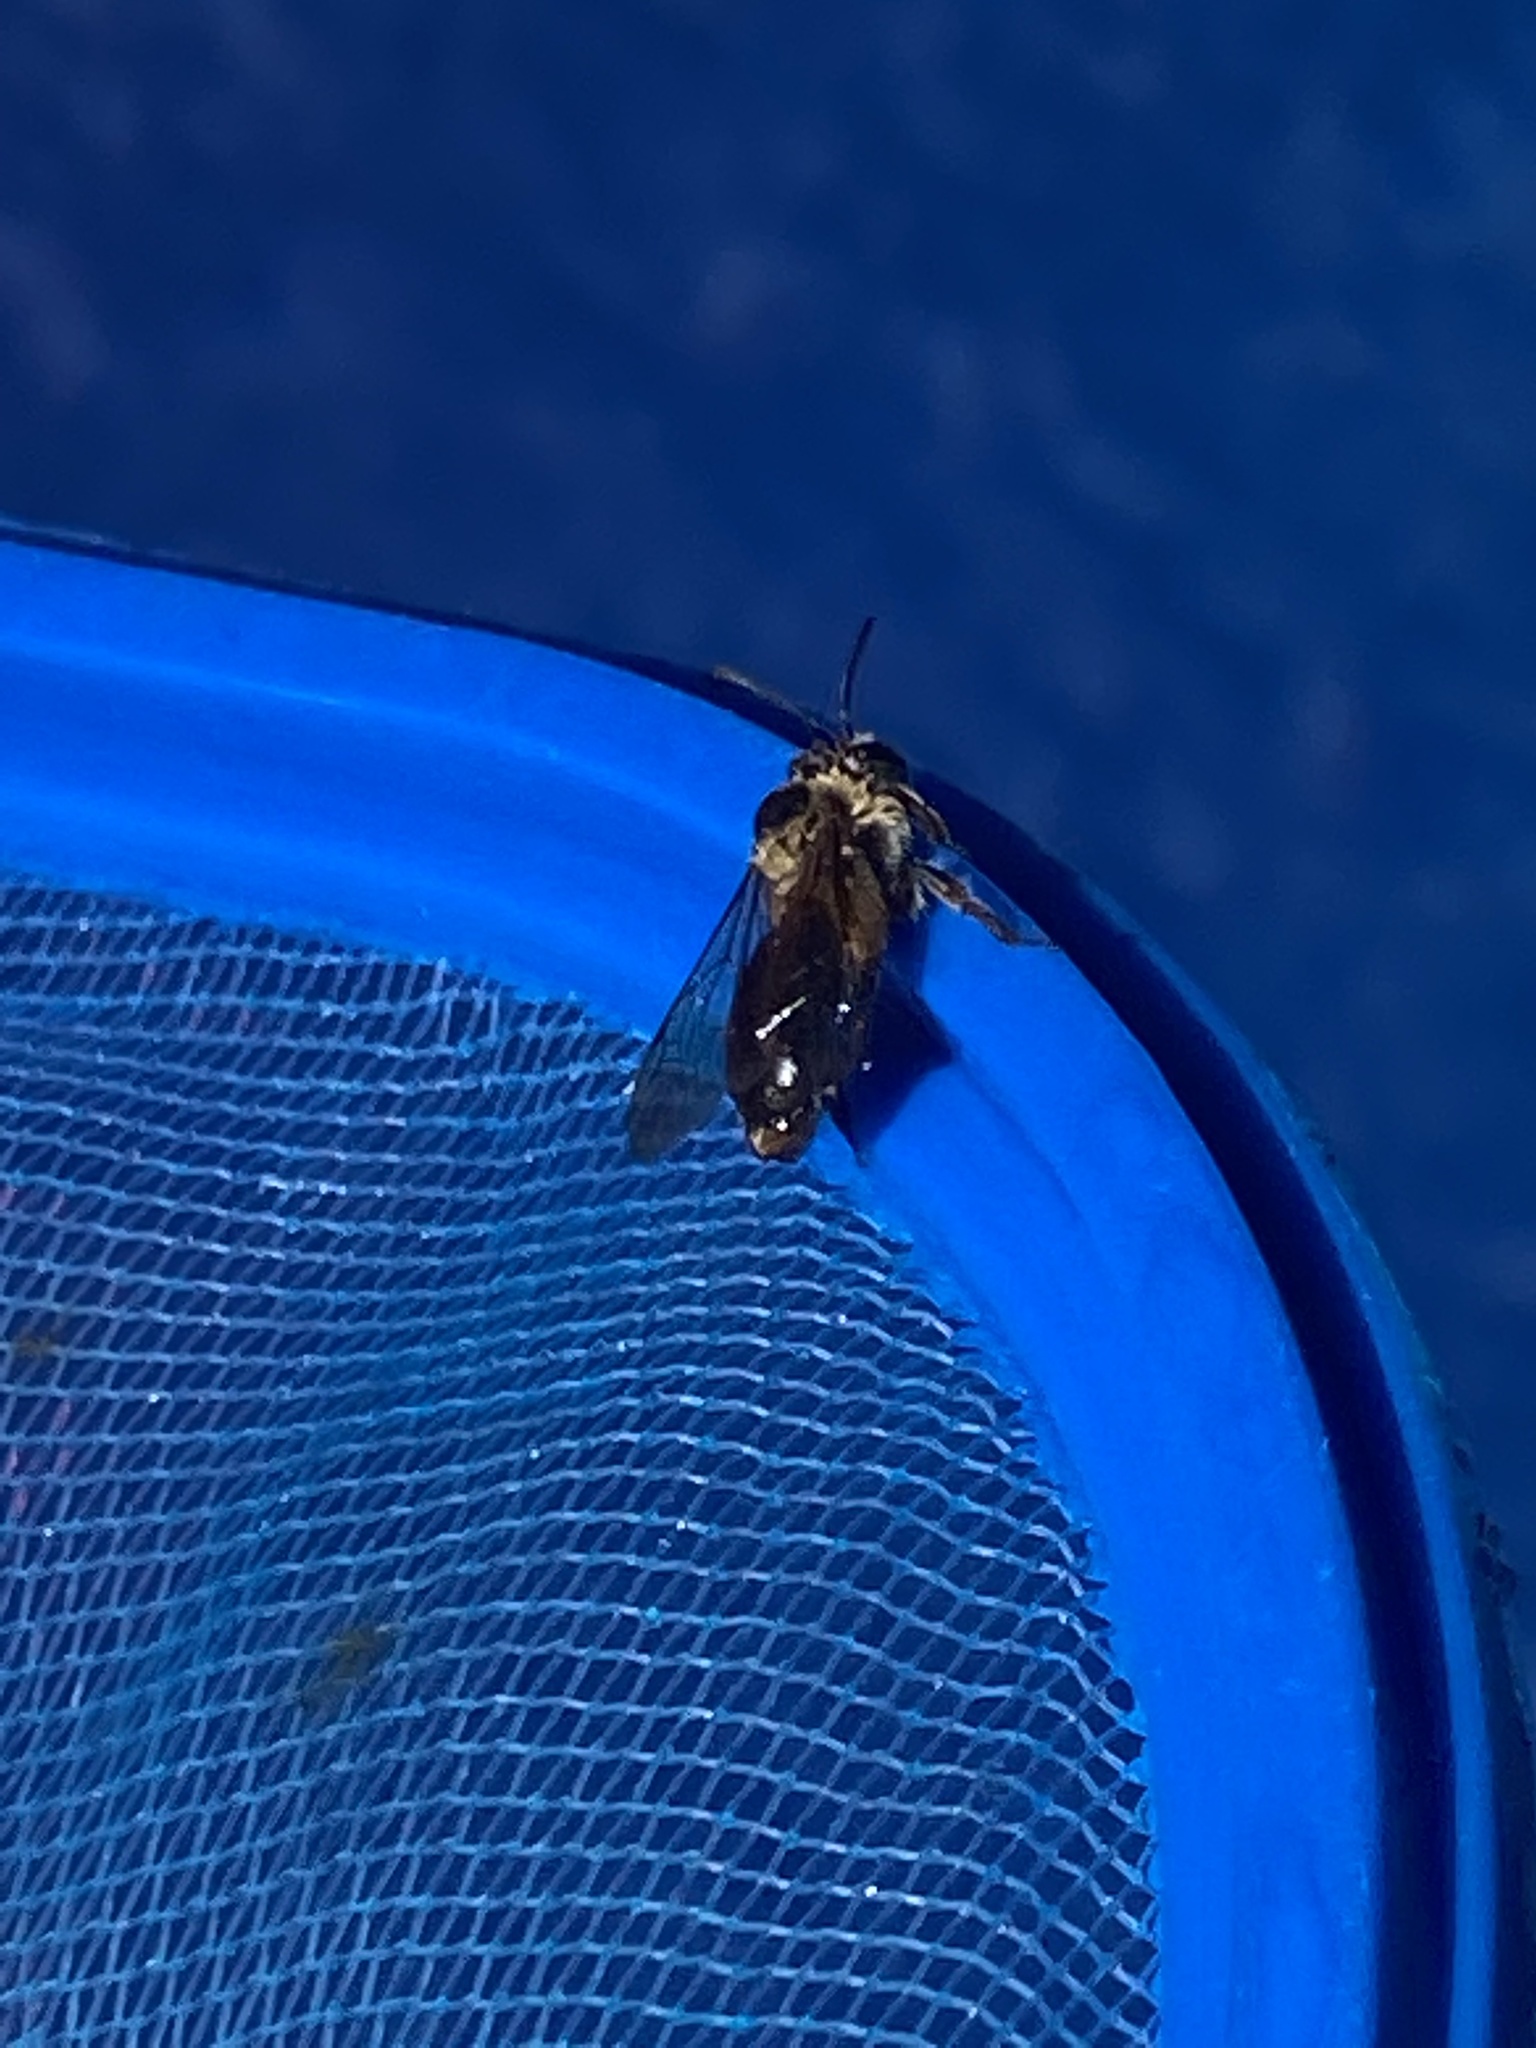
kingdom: Animalia
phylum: Arthropoda
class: Insecta
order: Hymenoptera
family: Andrenidae
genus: Andrena
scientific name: Andrena nuda
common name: Nude mining bee
